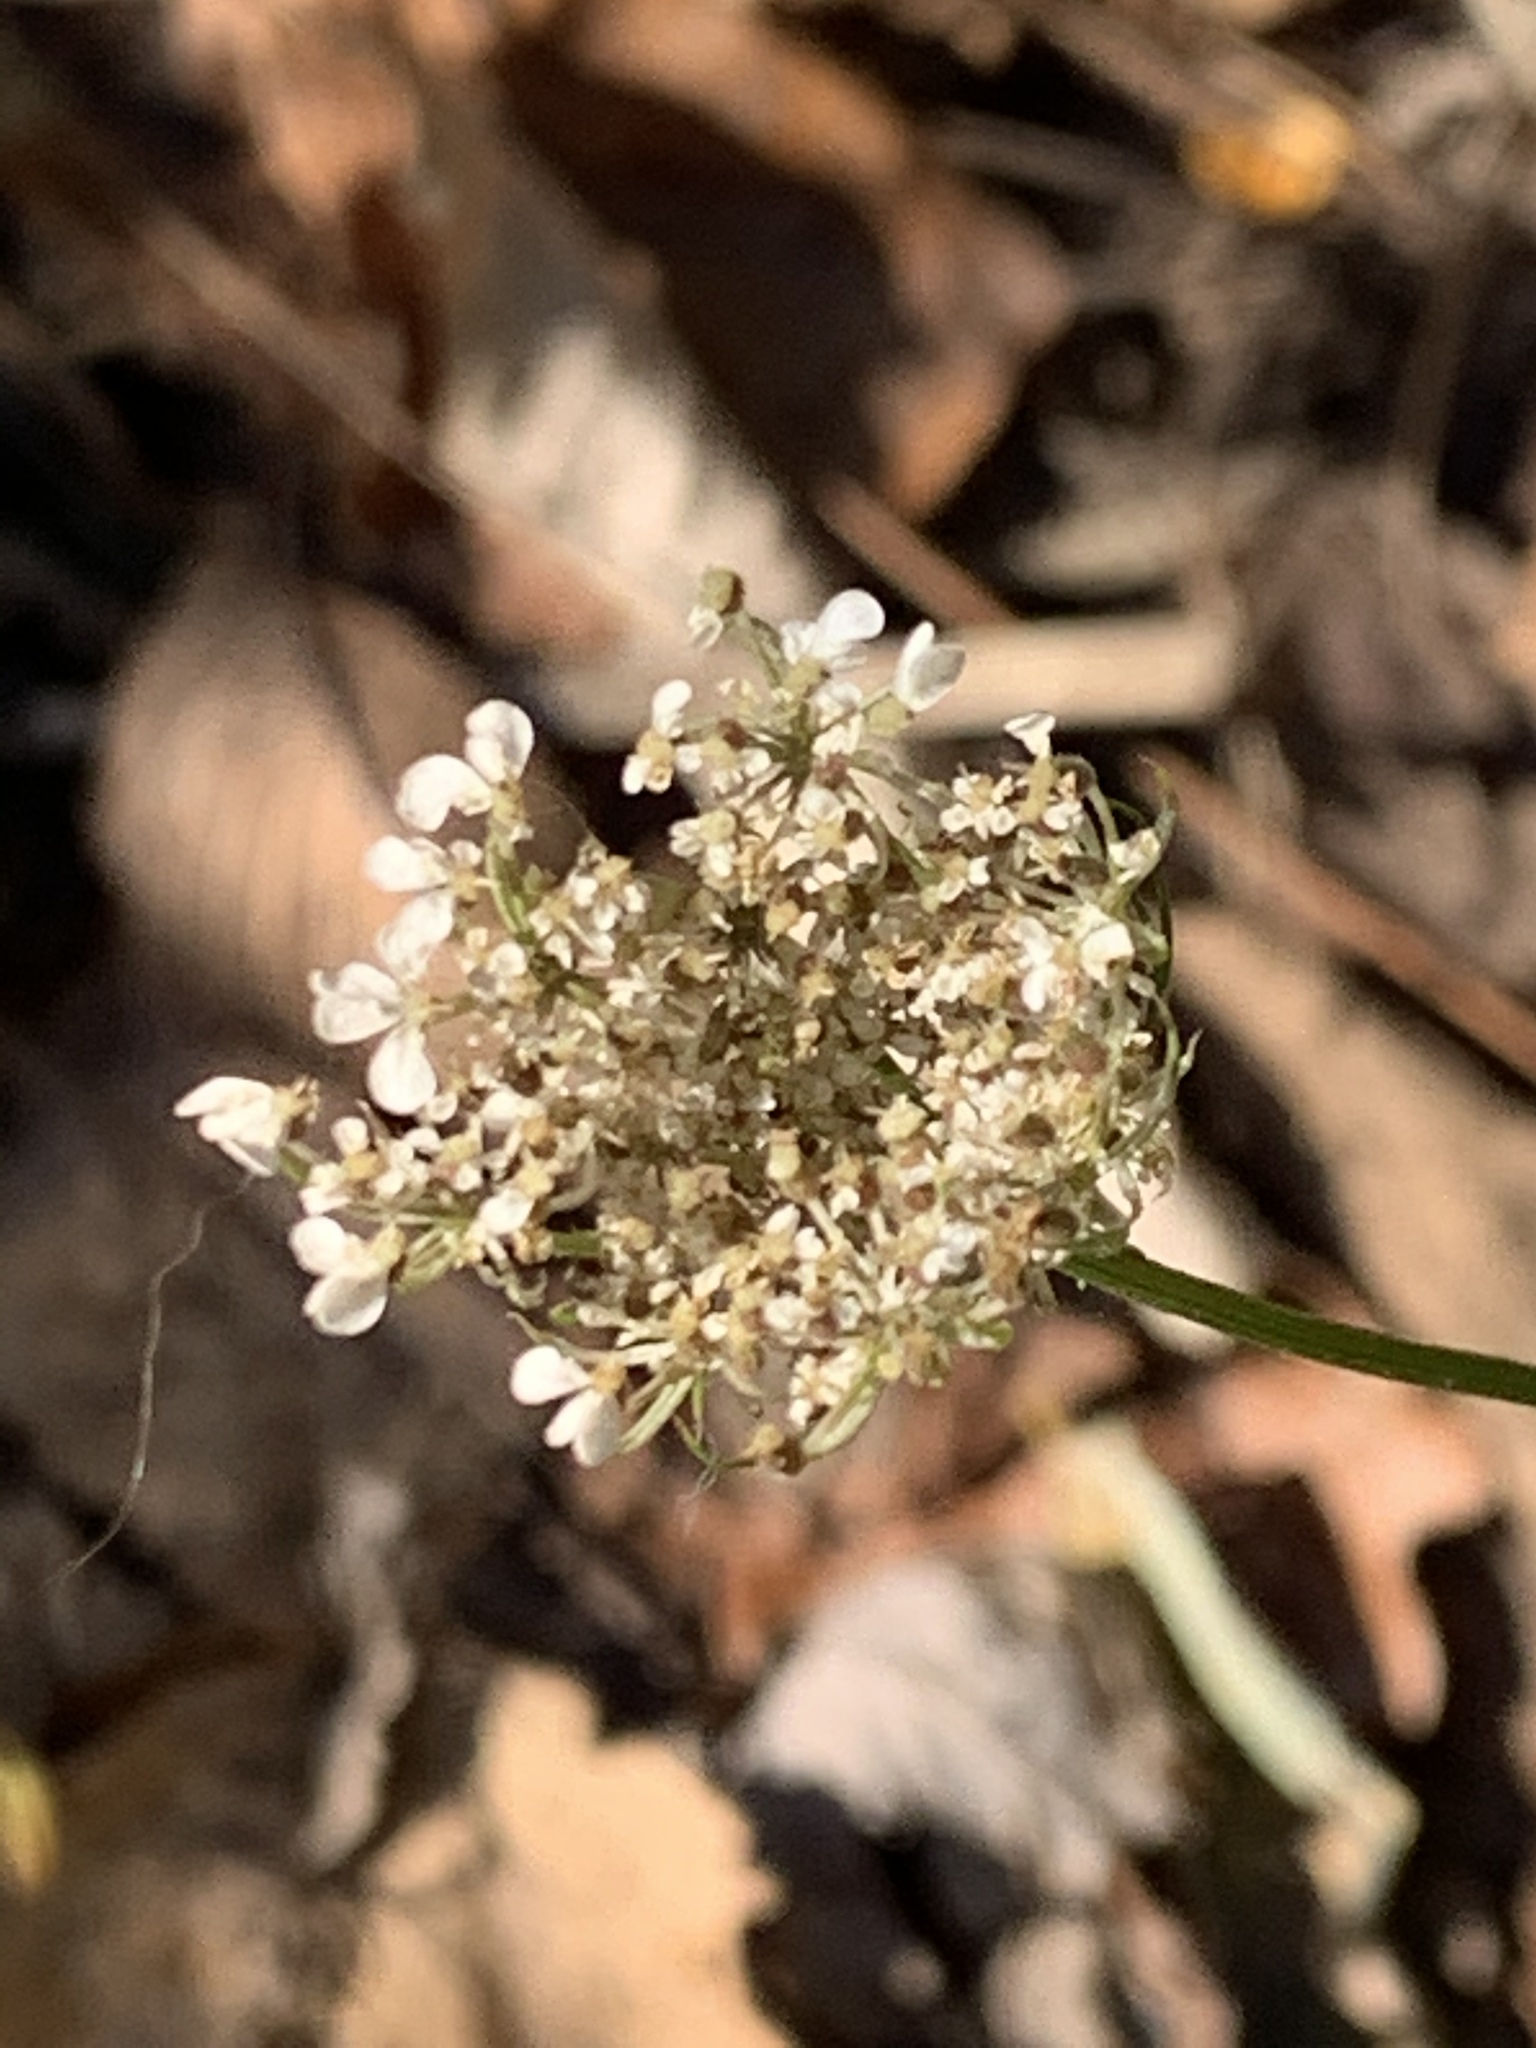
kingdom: Plantae
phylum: Tracheophyta
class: Magnoliopsida
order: Apiales
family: Apiaceae
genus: Daucus
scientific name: Daucus carota
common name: Wild carrot
